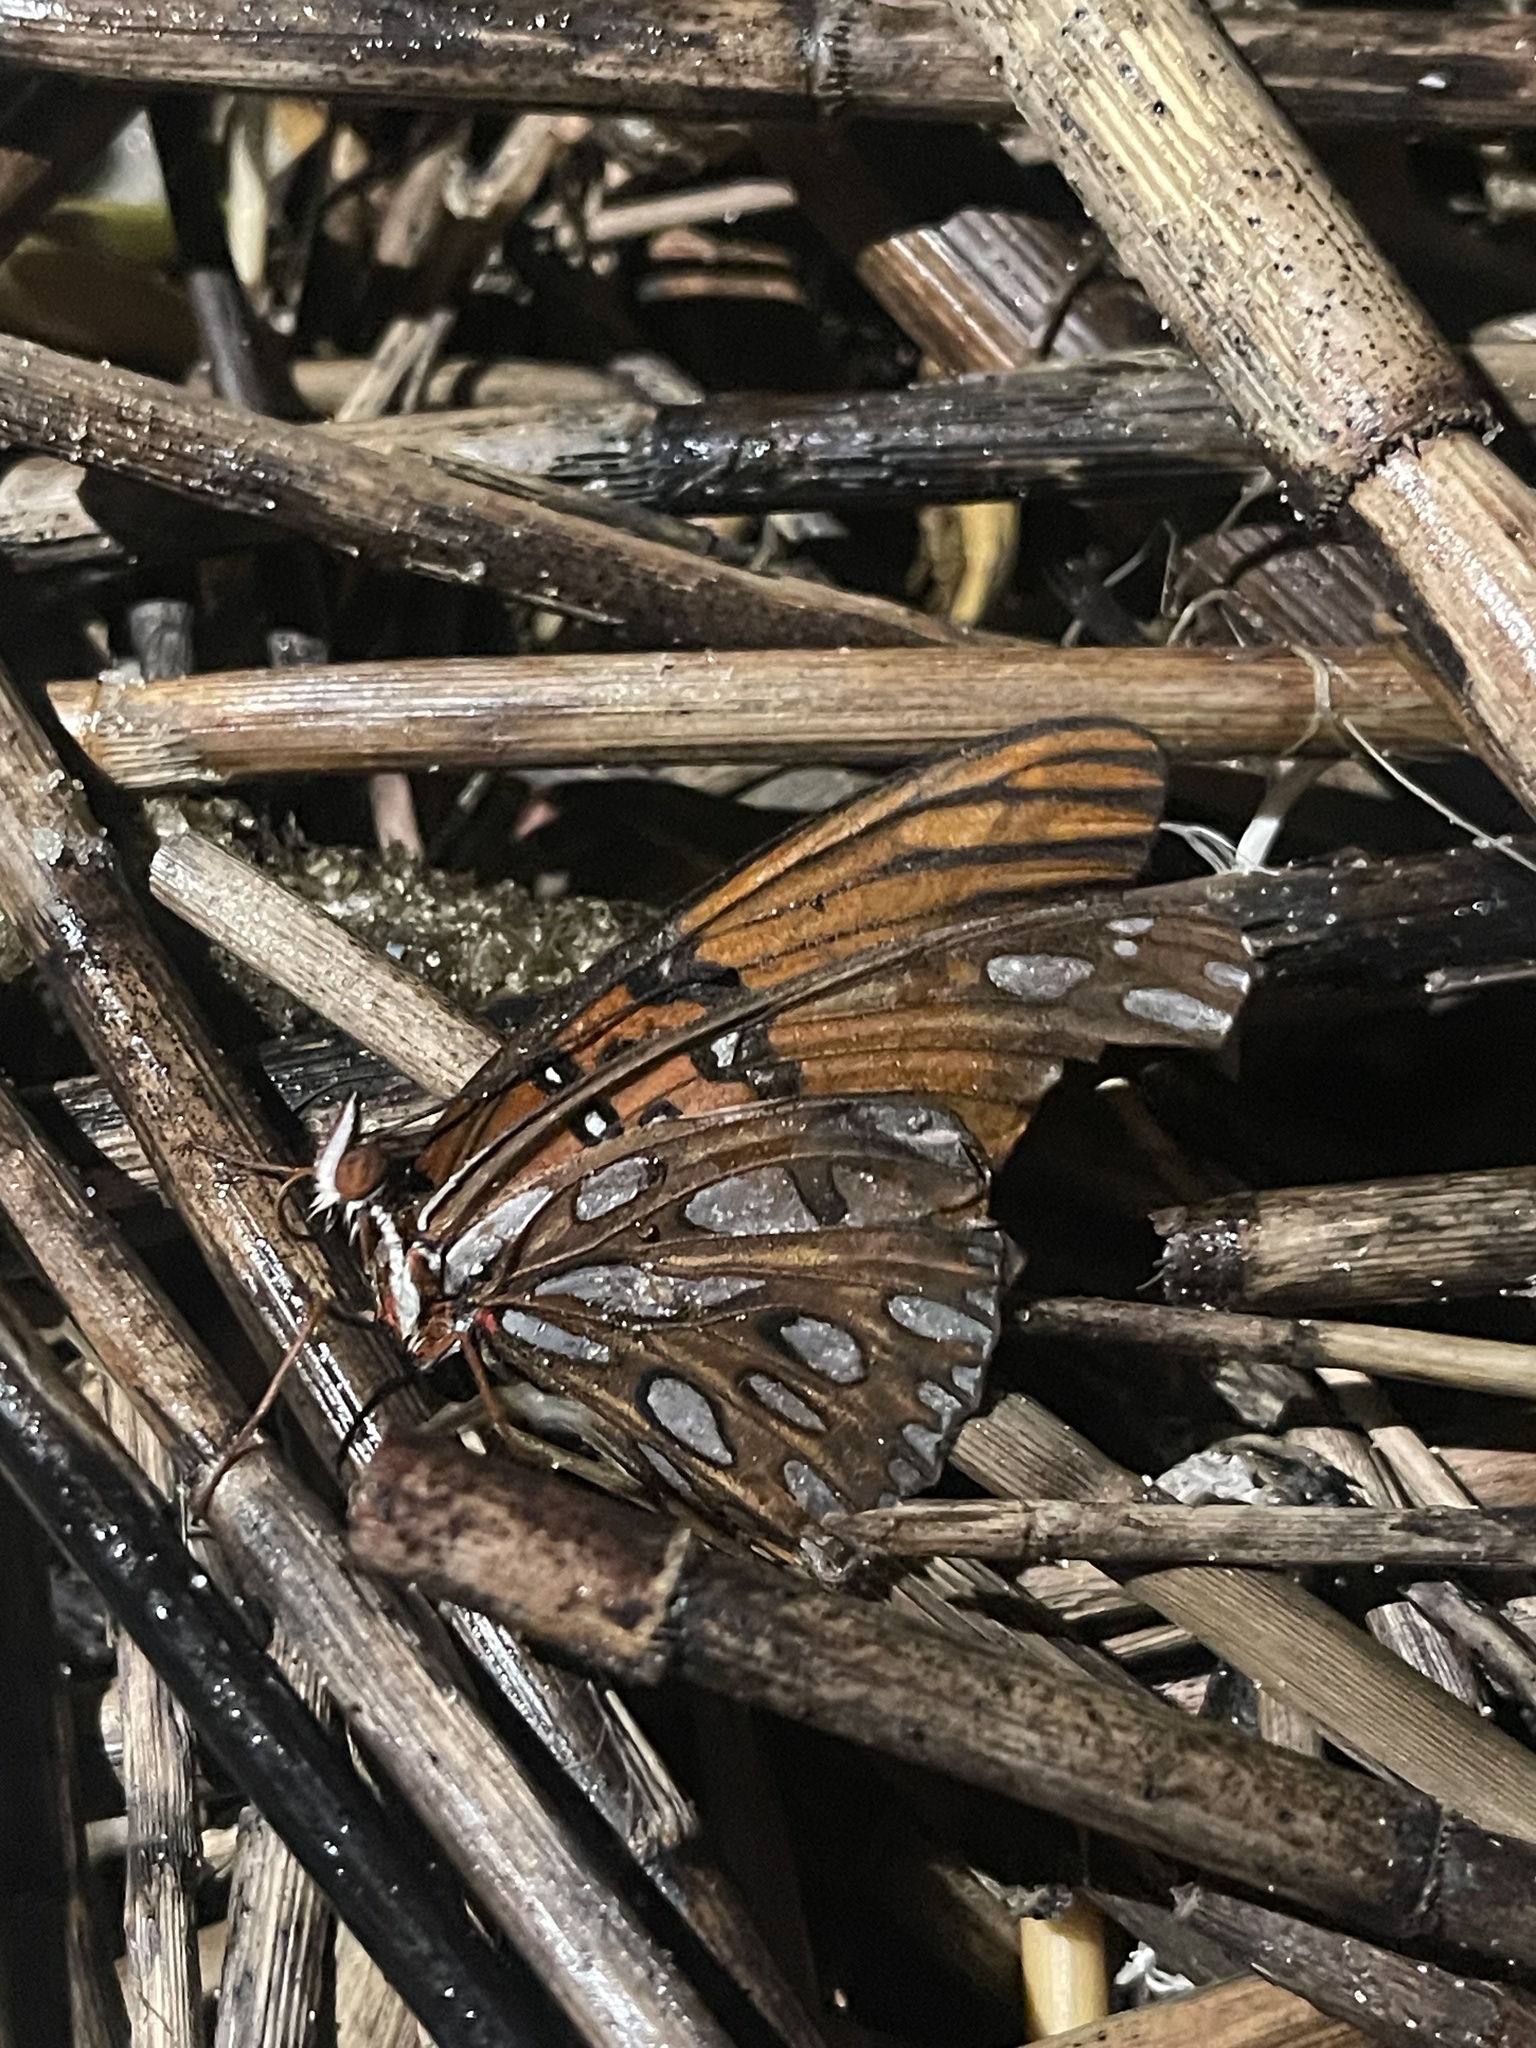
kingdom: Animalia
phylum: Arthropoda
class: Insecta
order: Lepidoptera
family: Nymphalidae
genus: Dione
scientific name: Dione vanillae
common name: Gulf fritillary
